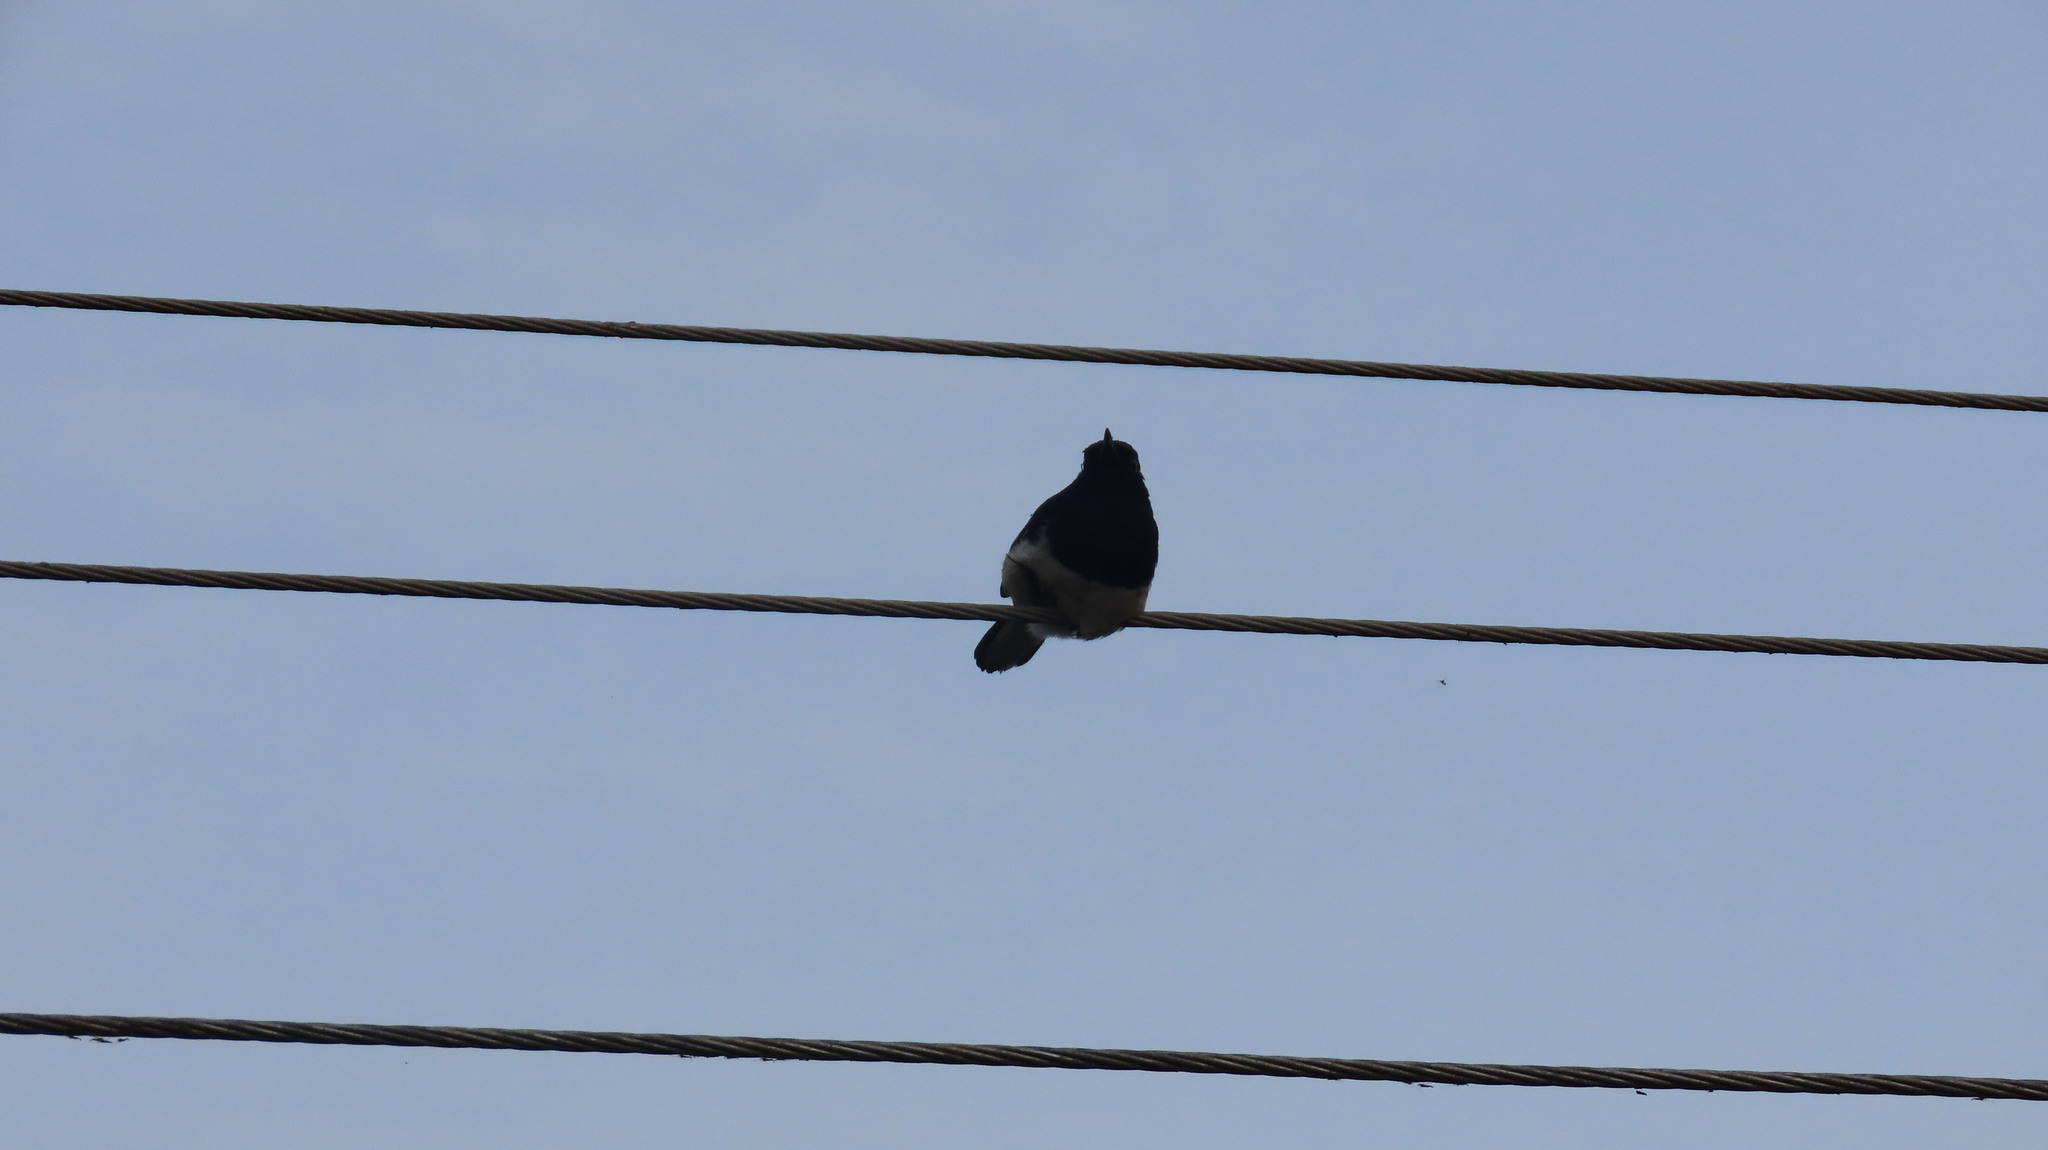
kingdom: Animalia
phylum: Chordata
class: Aves
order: Passeriformes
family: Muscicapidae
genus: Copsychus
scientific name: Copsychus saularis
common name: Oriental magpie-robin
